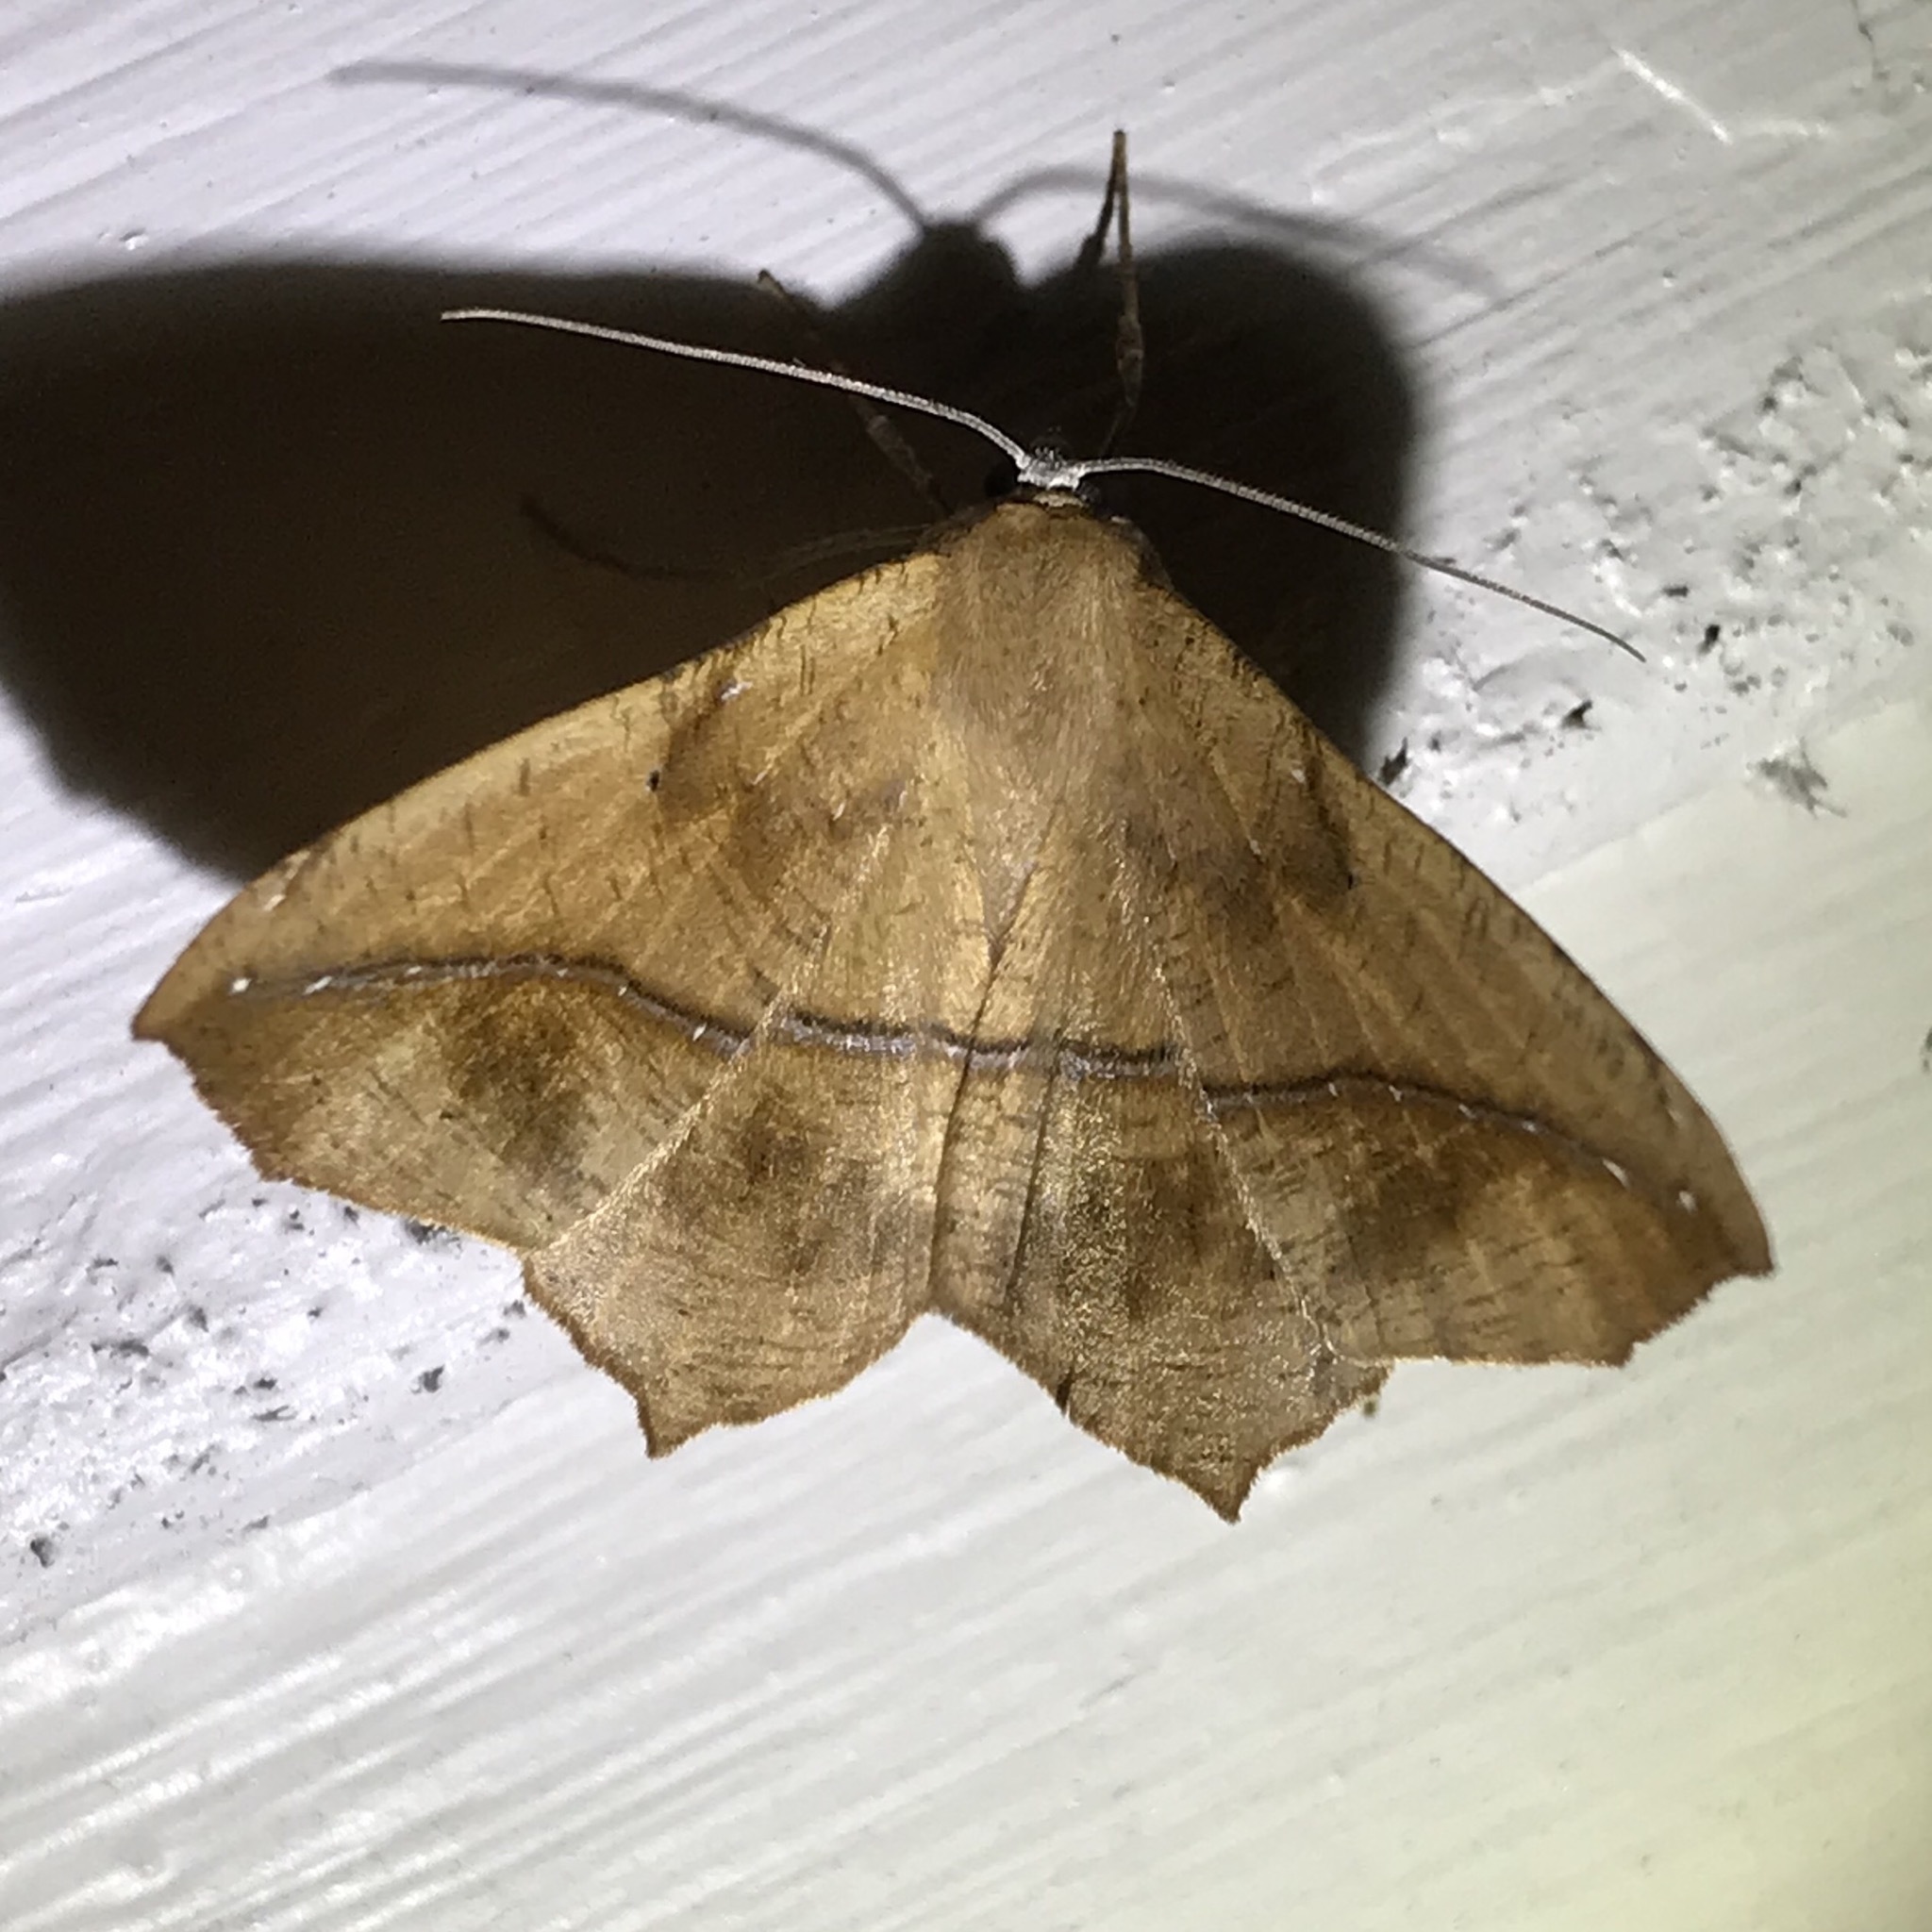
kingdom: Animalia
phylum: Arthropoda
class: Insecta
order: Lepidoptera
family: Geometridae
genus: Prochoerodes
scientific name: Prochoerodes lineola
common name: Large maple spanworm
